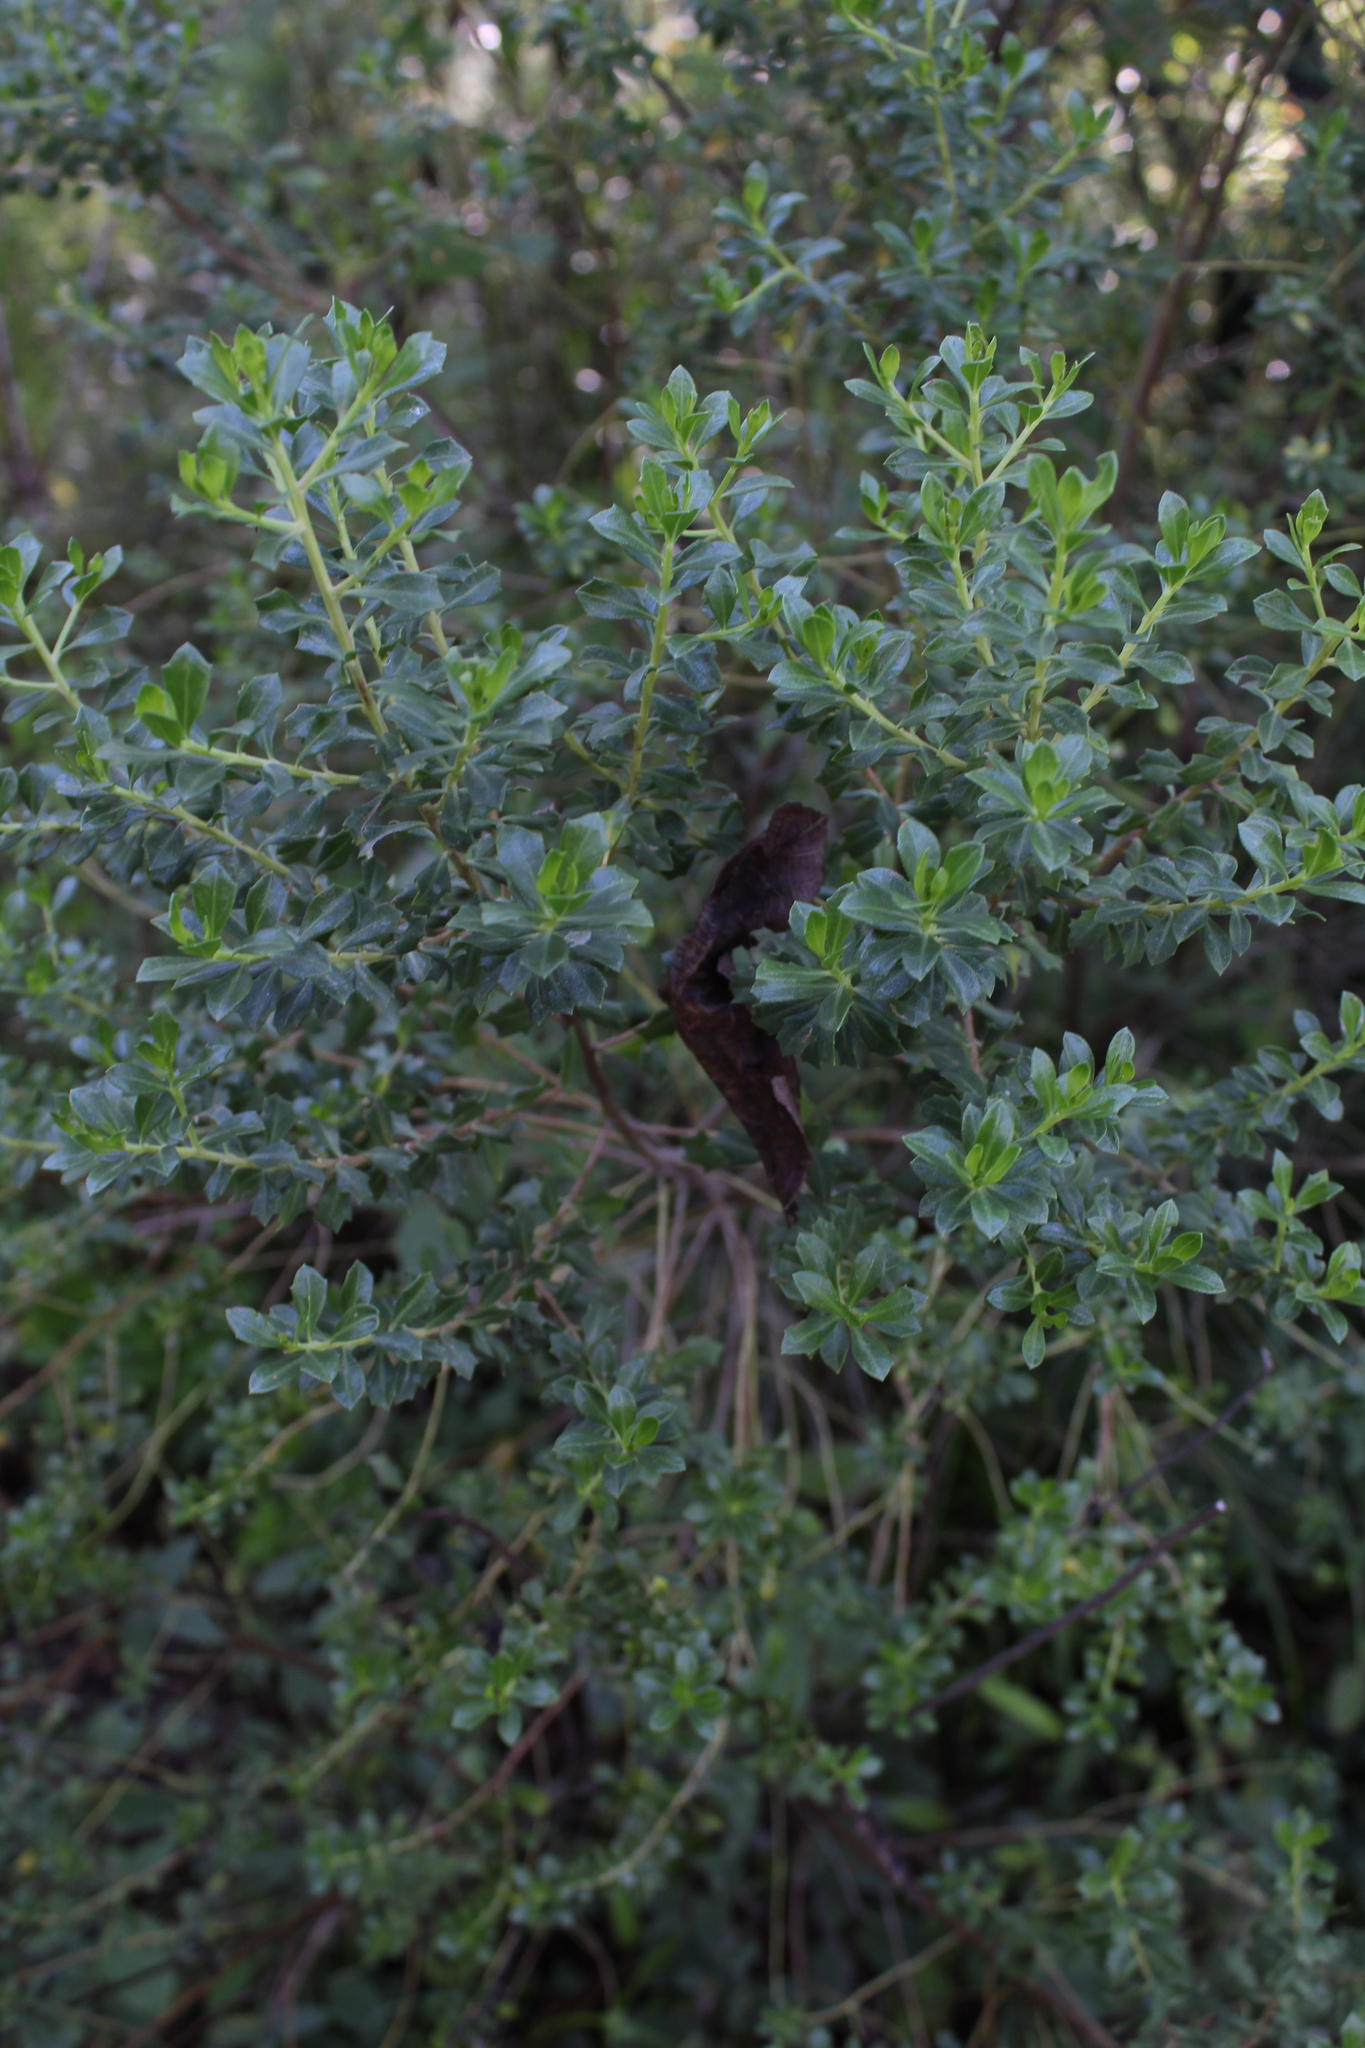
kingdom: Plantae
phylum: Tracheophyta
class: Magnoliopsida
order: Asterales
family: Asteraceae
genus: Baccharis
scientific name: Baccharis conferta
